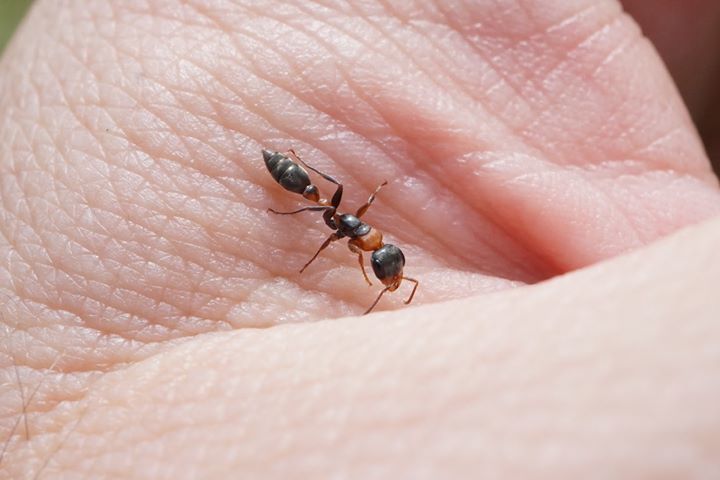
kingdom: Animalia
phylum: Arthropoda
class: Insecta
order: Hymenoptera
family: Formicidae
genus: Pseudomyrmex
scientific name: Pseudomyrmex gracilis
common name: Graceful twig ant
